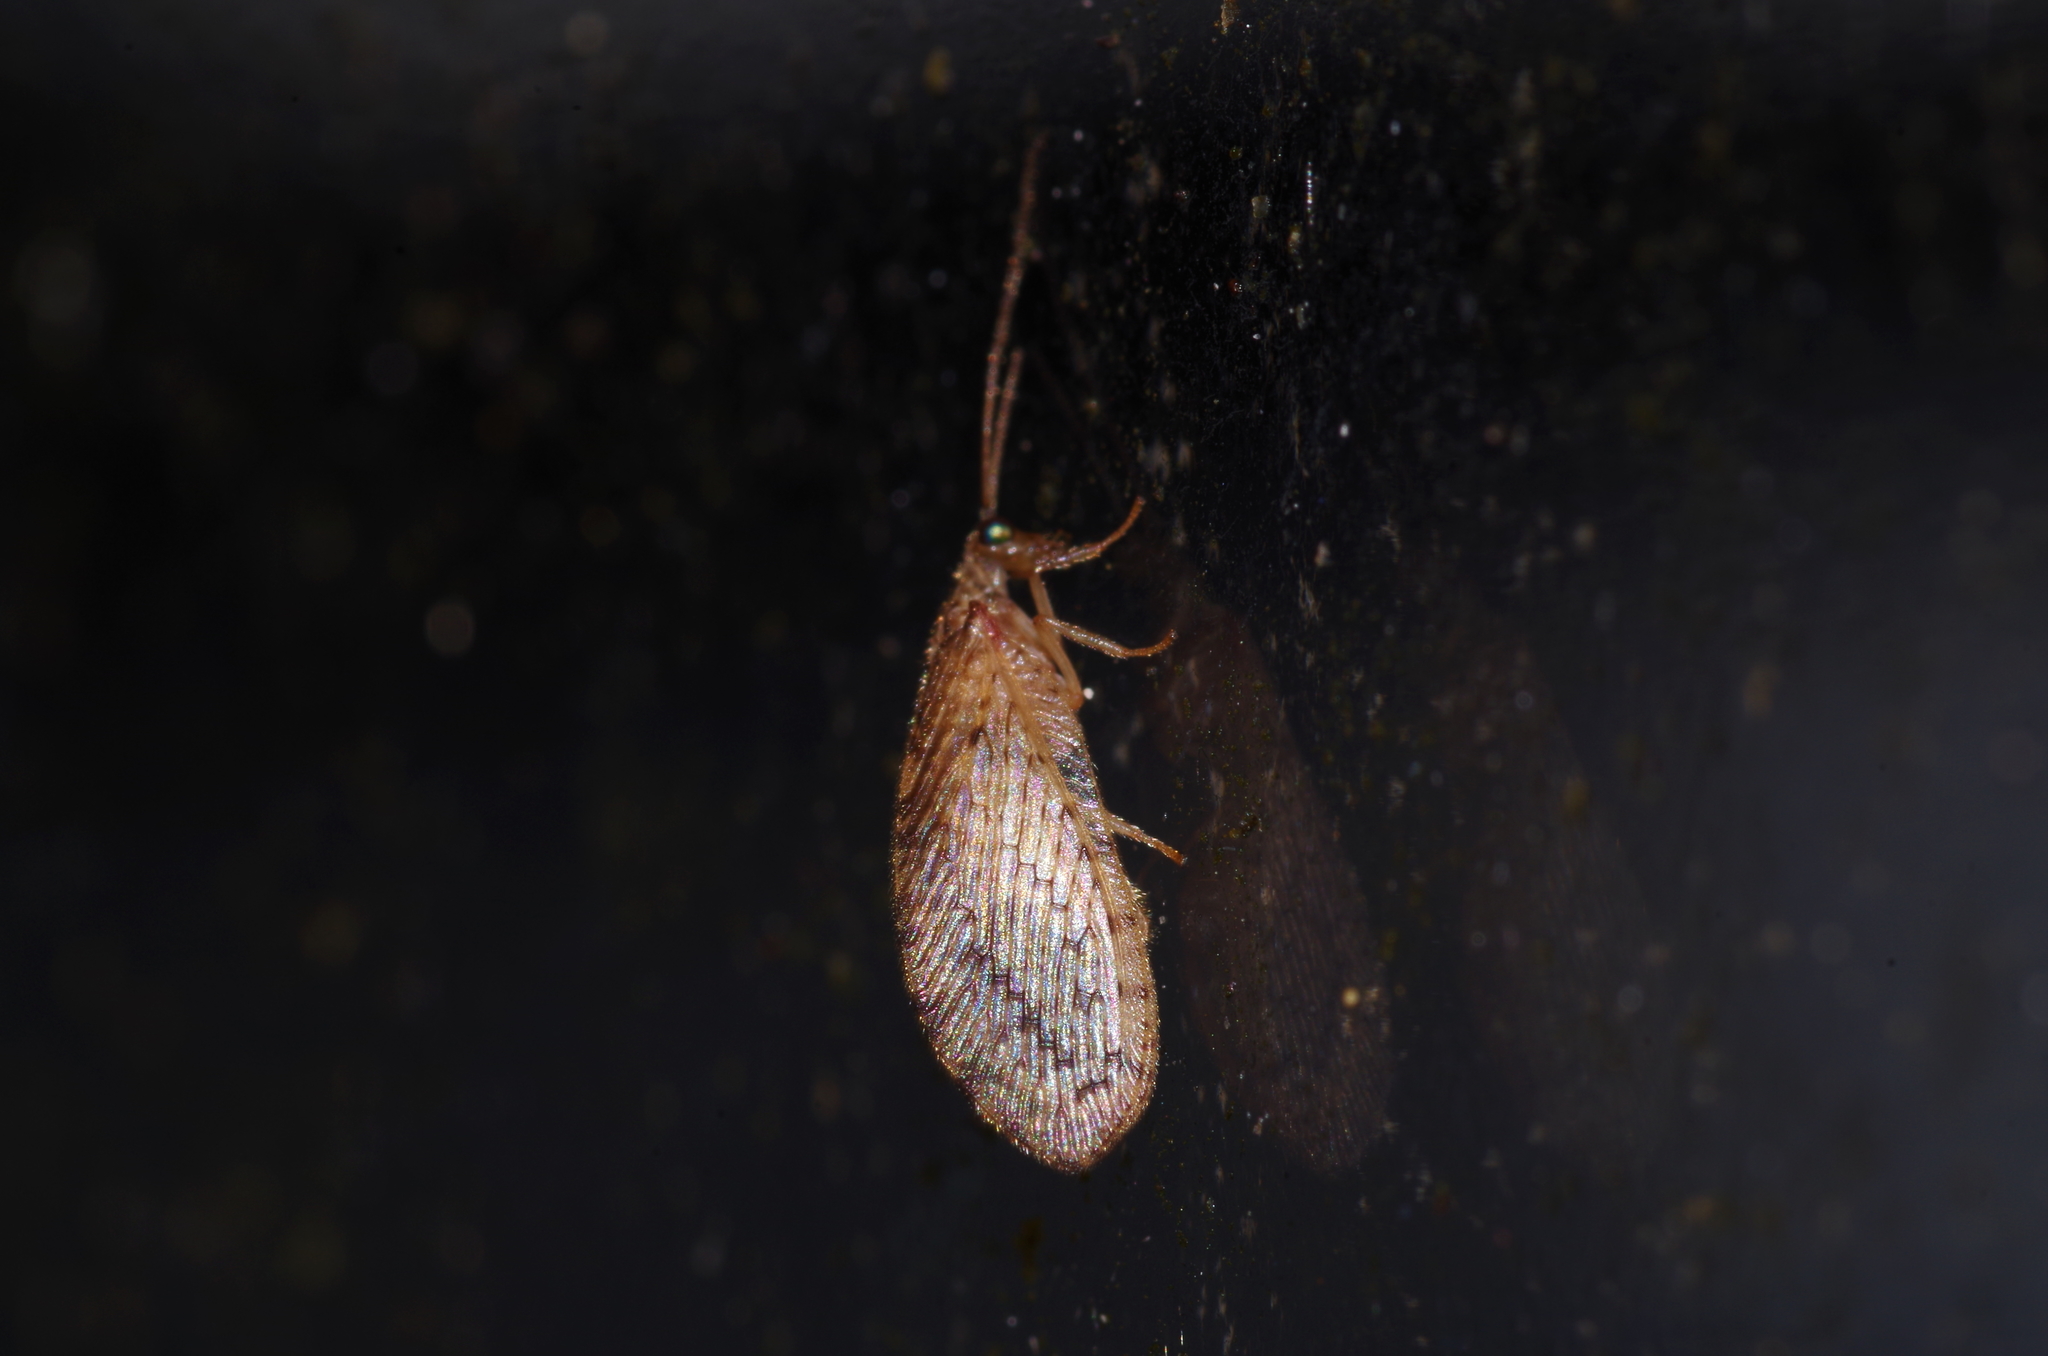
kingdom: Animalia
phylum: Arthropoda
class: Insecta
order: Neuroptera
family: Hemerobiidae
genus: Micromus
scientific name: Micromus timidus
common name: Brown lacewing
